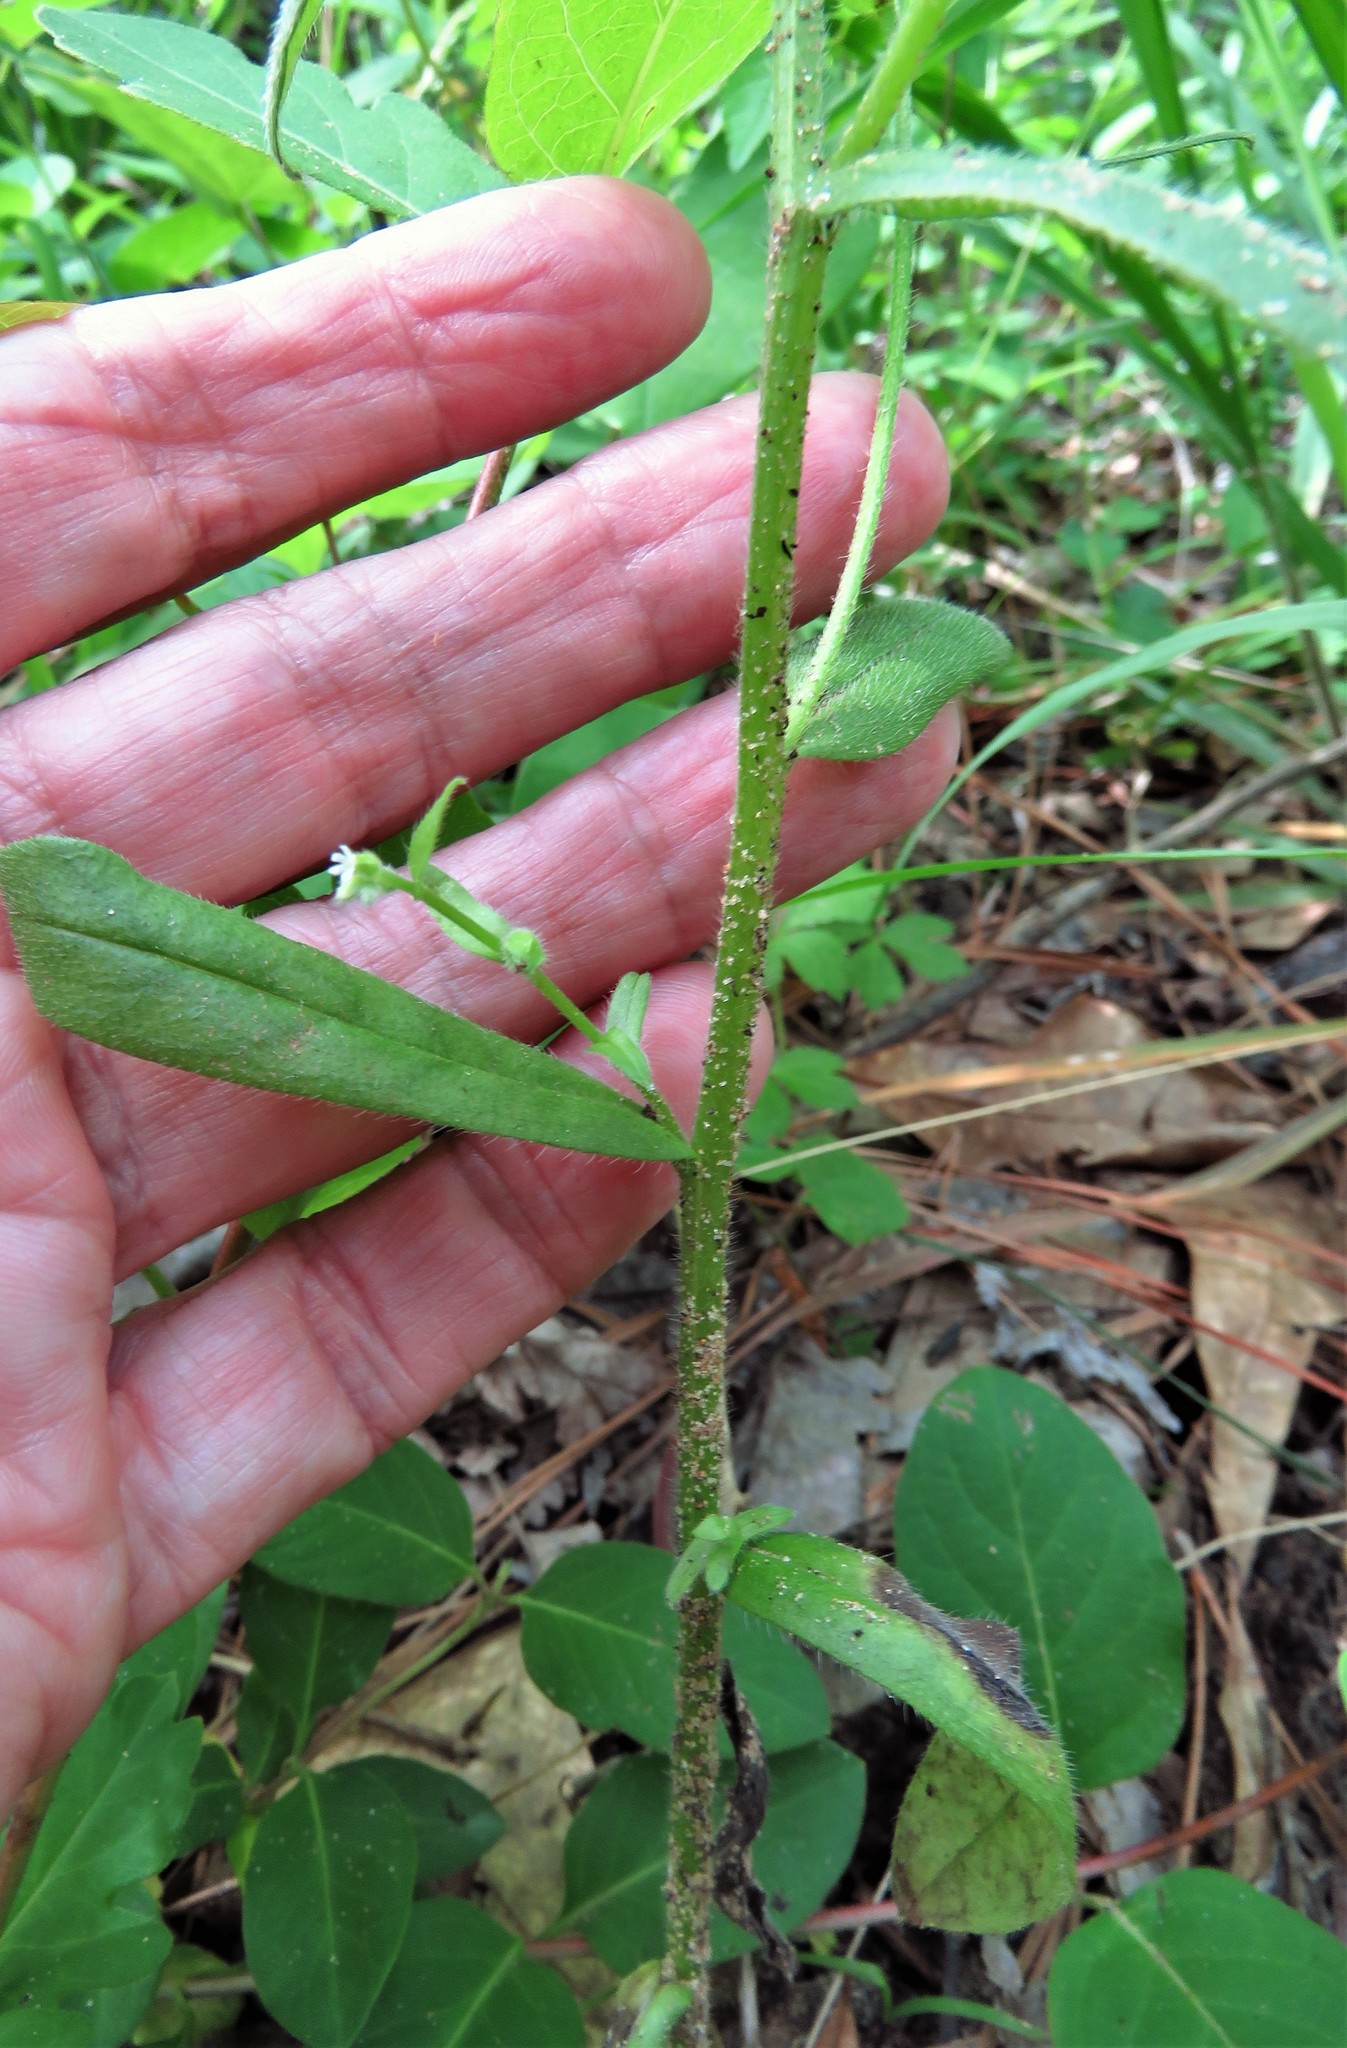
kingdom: Plantae
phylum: Tracheophyta
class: Magnoliopsida
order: Boraginales
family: Boraginaceae
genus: Myosotis
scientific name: Myosotis macrosperma
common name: Large-seed forget-me-not
